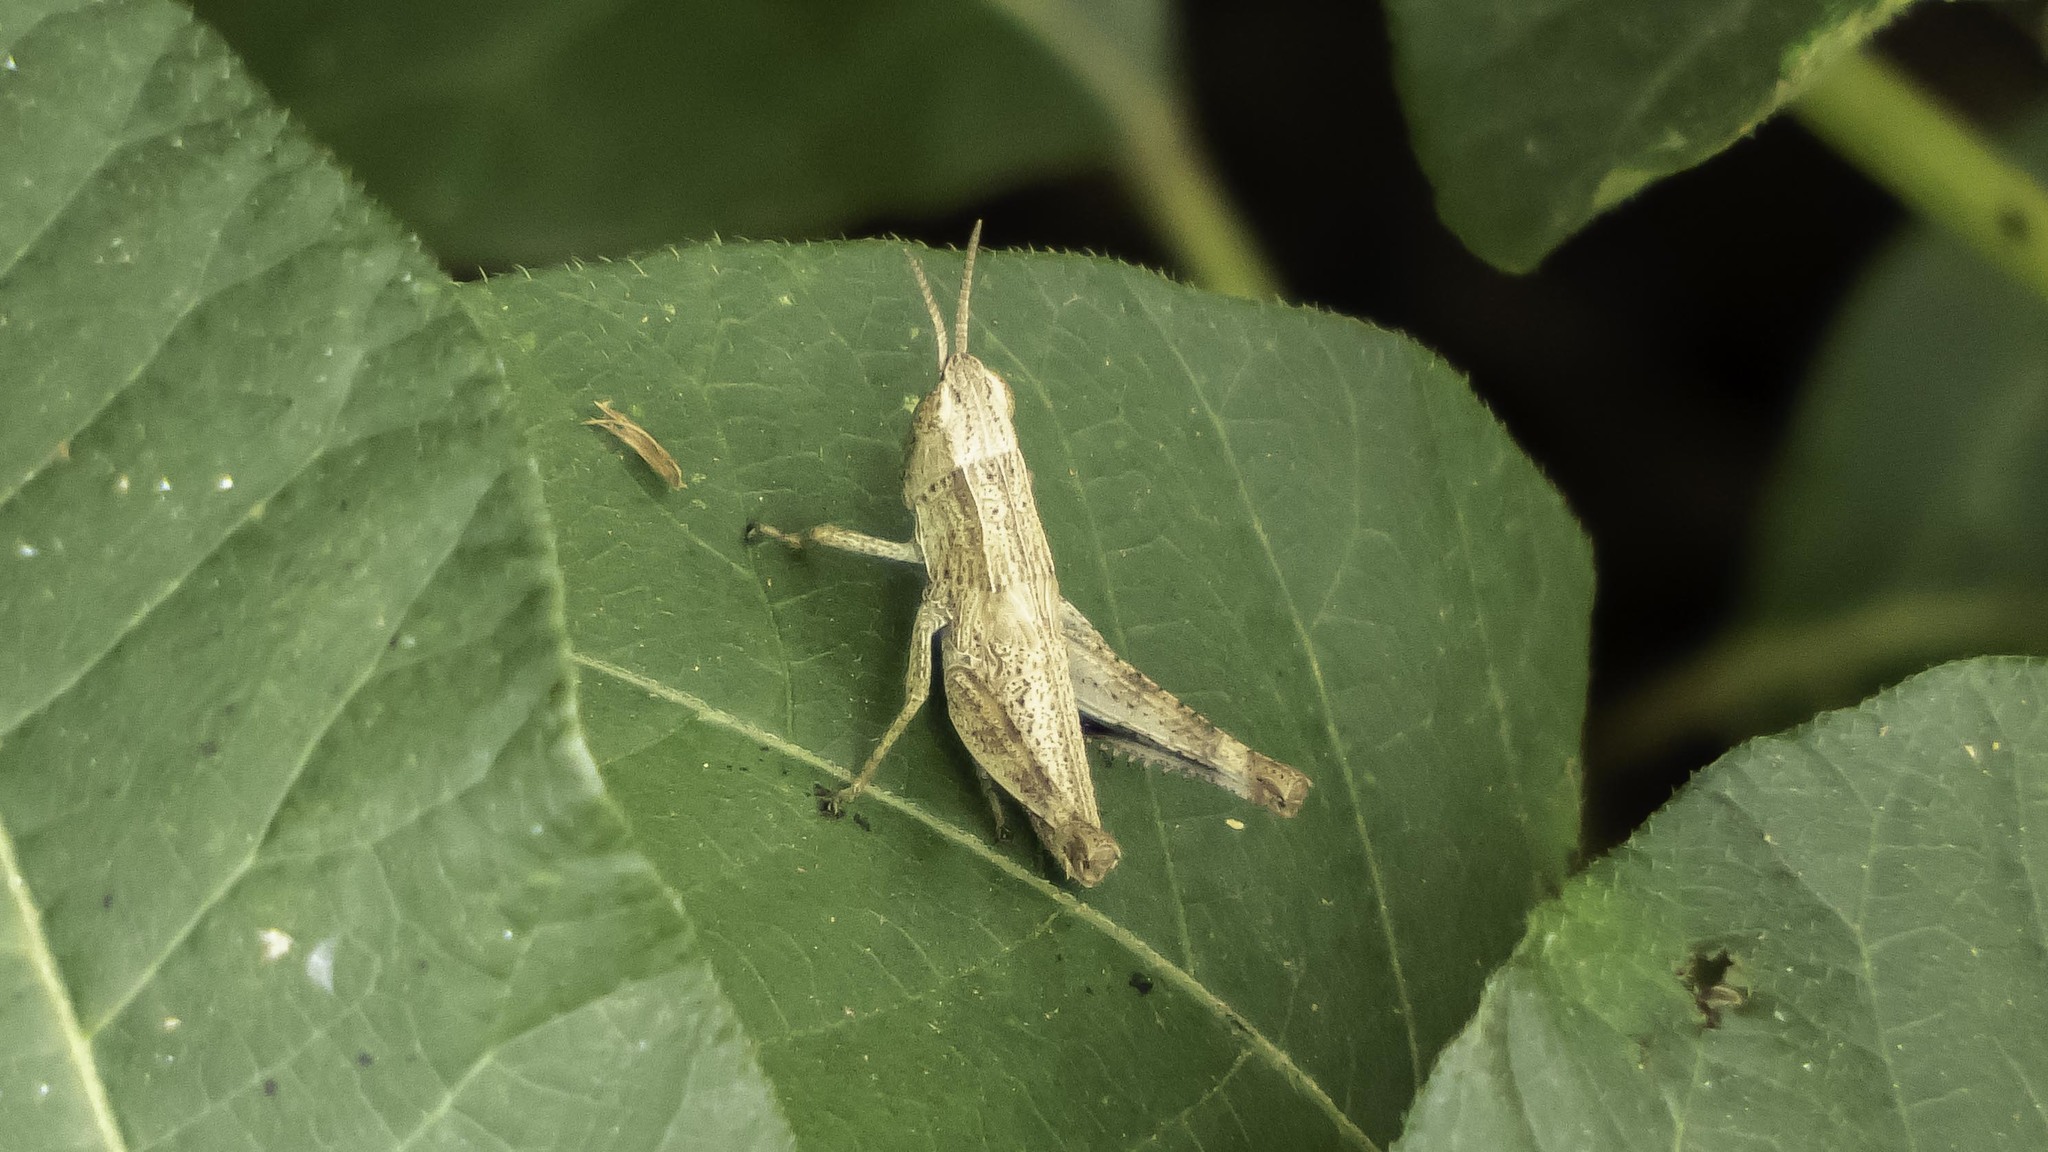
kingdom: Animalia
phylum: Arthropoda
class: Insecta
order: Orthoptera
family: Acrididae
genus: Dichromorpha
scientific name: Dichromorpha viridis
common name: Short-winged green grasshopper
